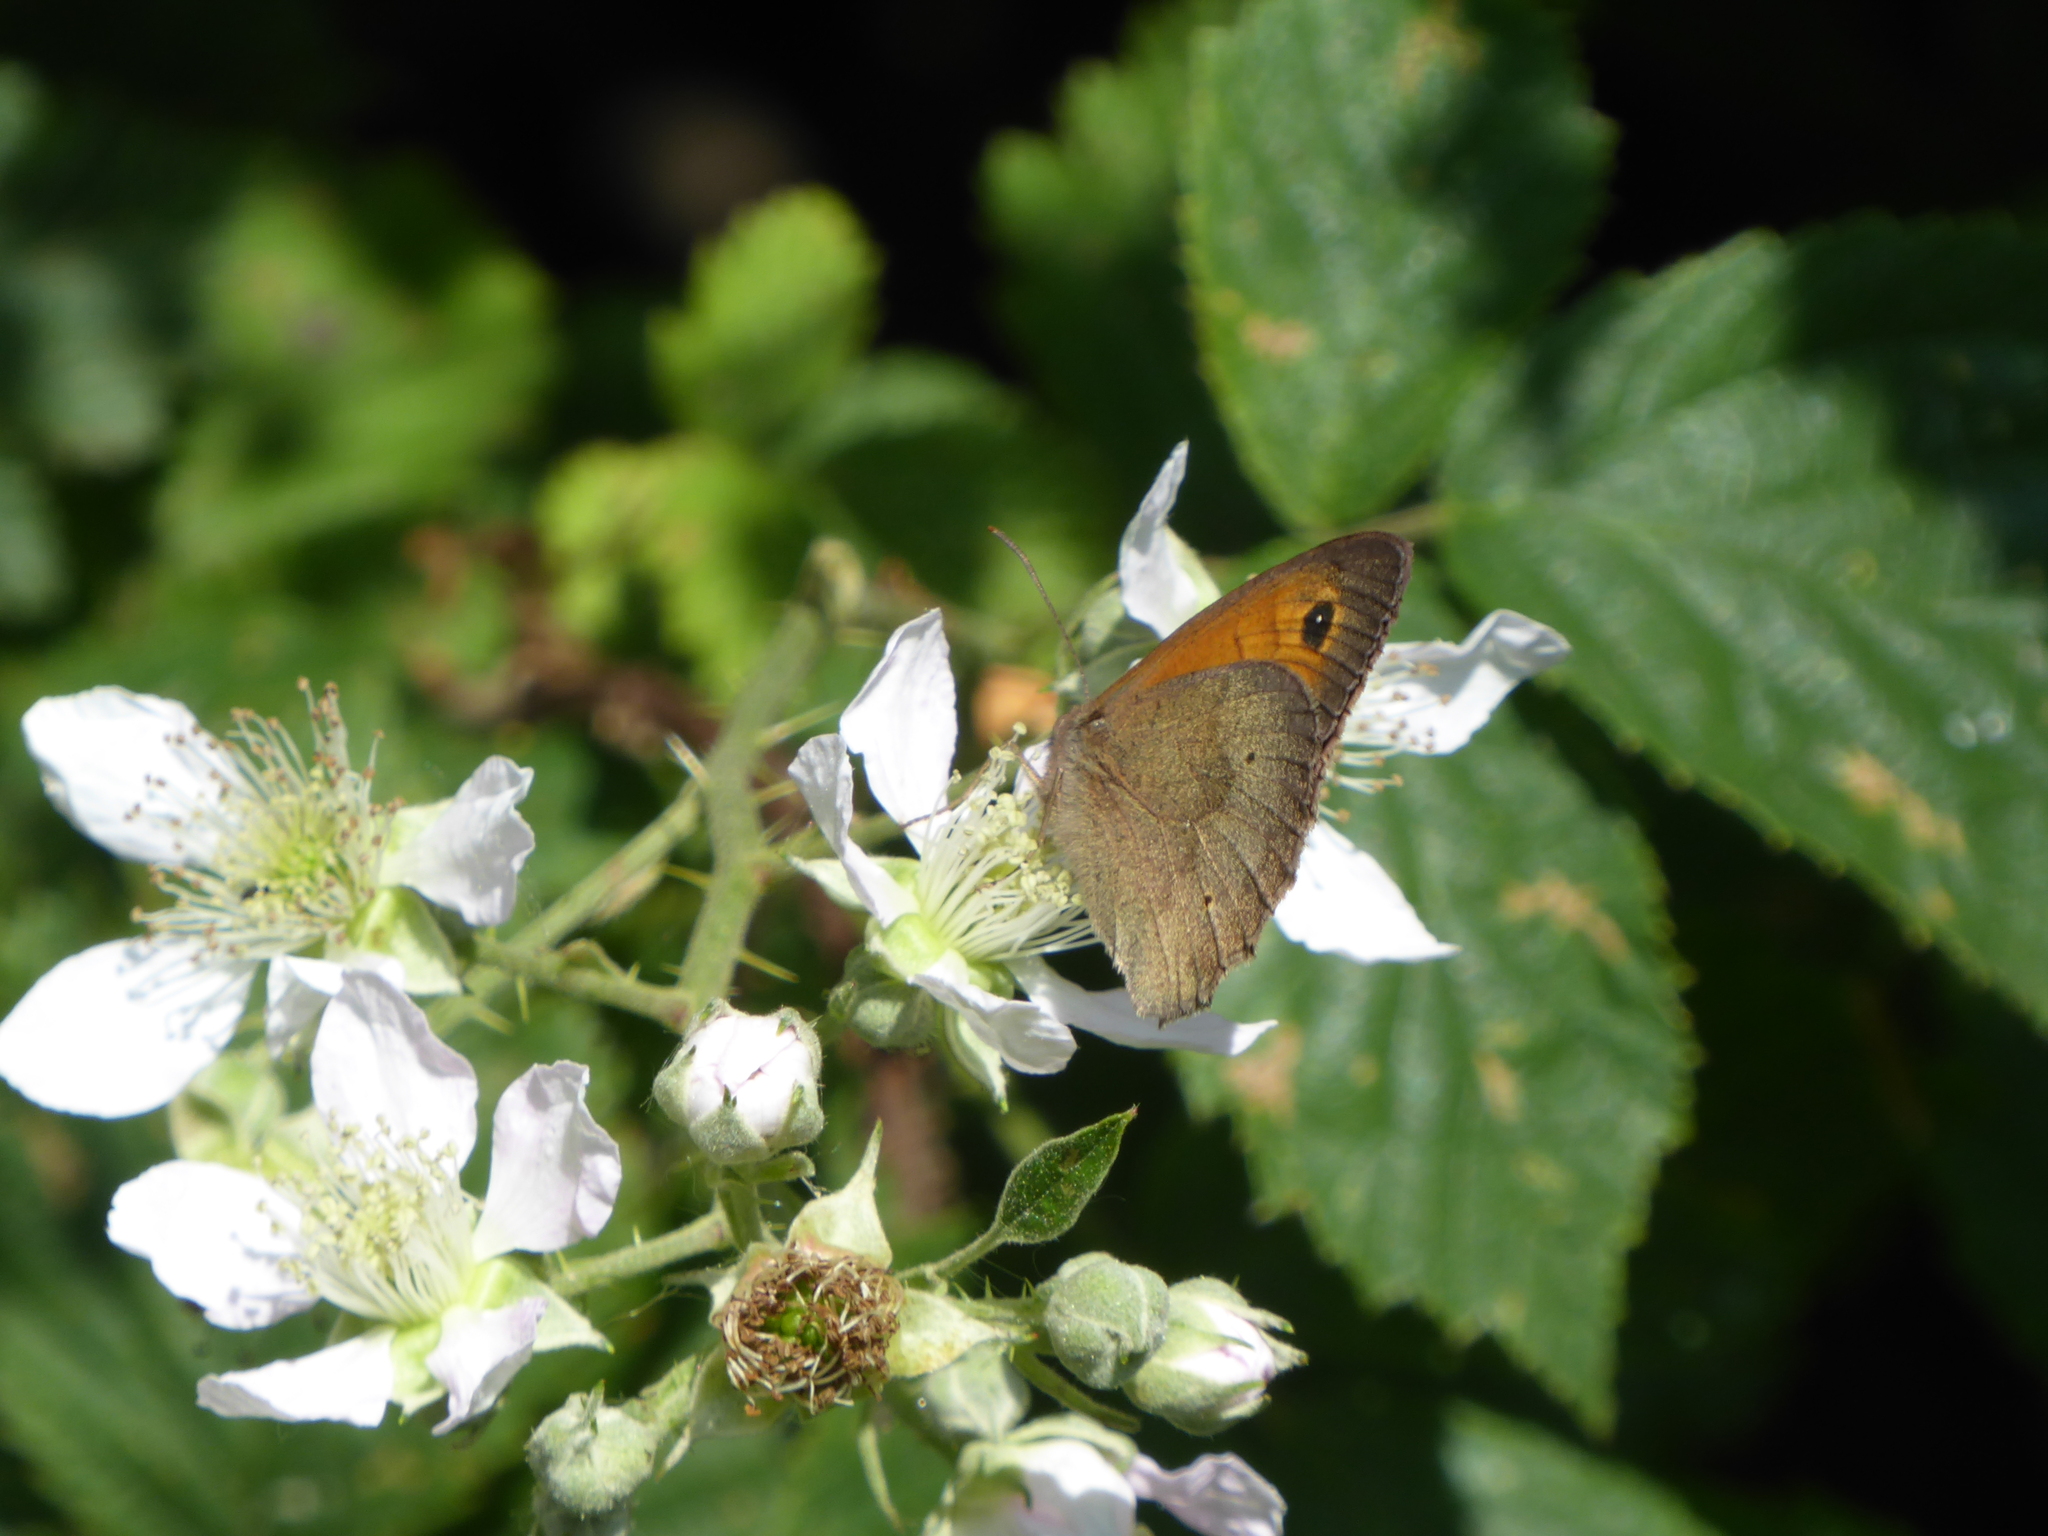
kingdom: Animalia
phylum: Arthropoda
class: Insecta
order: Lepidoptera
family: Nymphalidae
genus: Maniola
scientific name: Maniola jurtina
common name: Meadow brown
